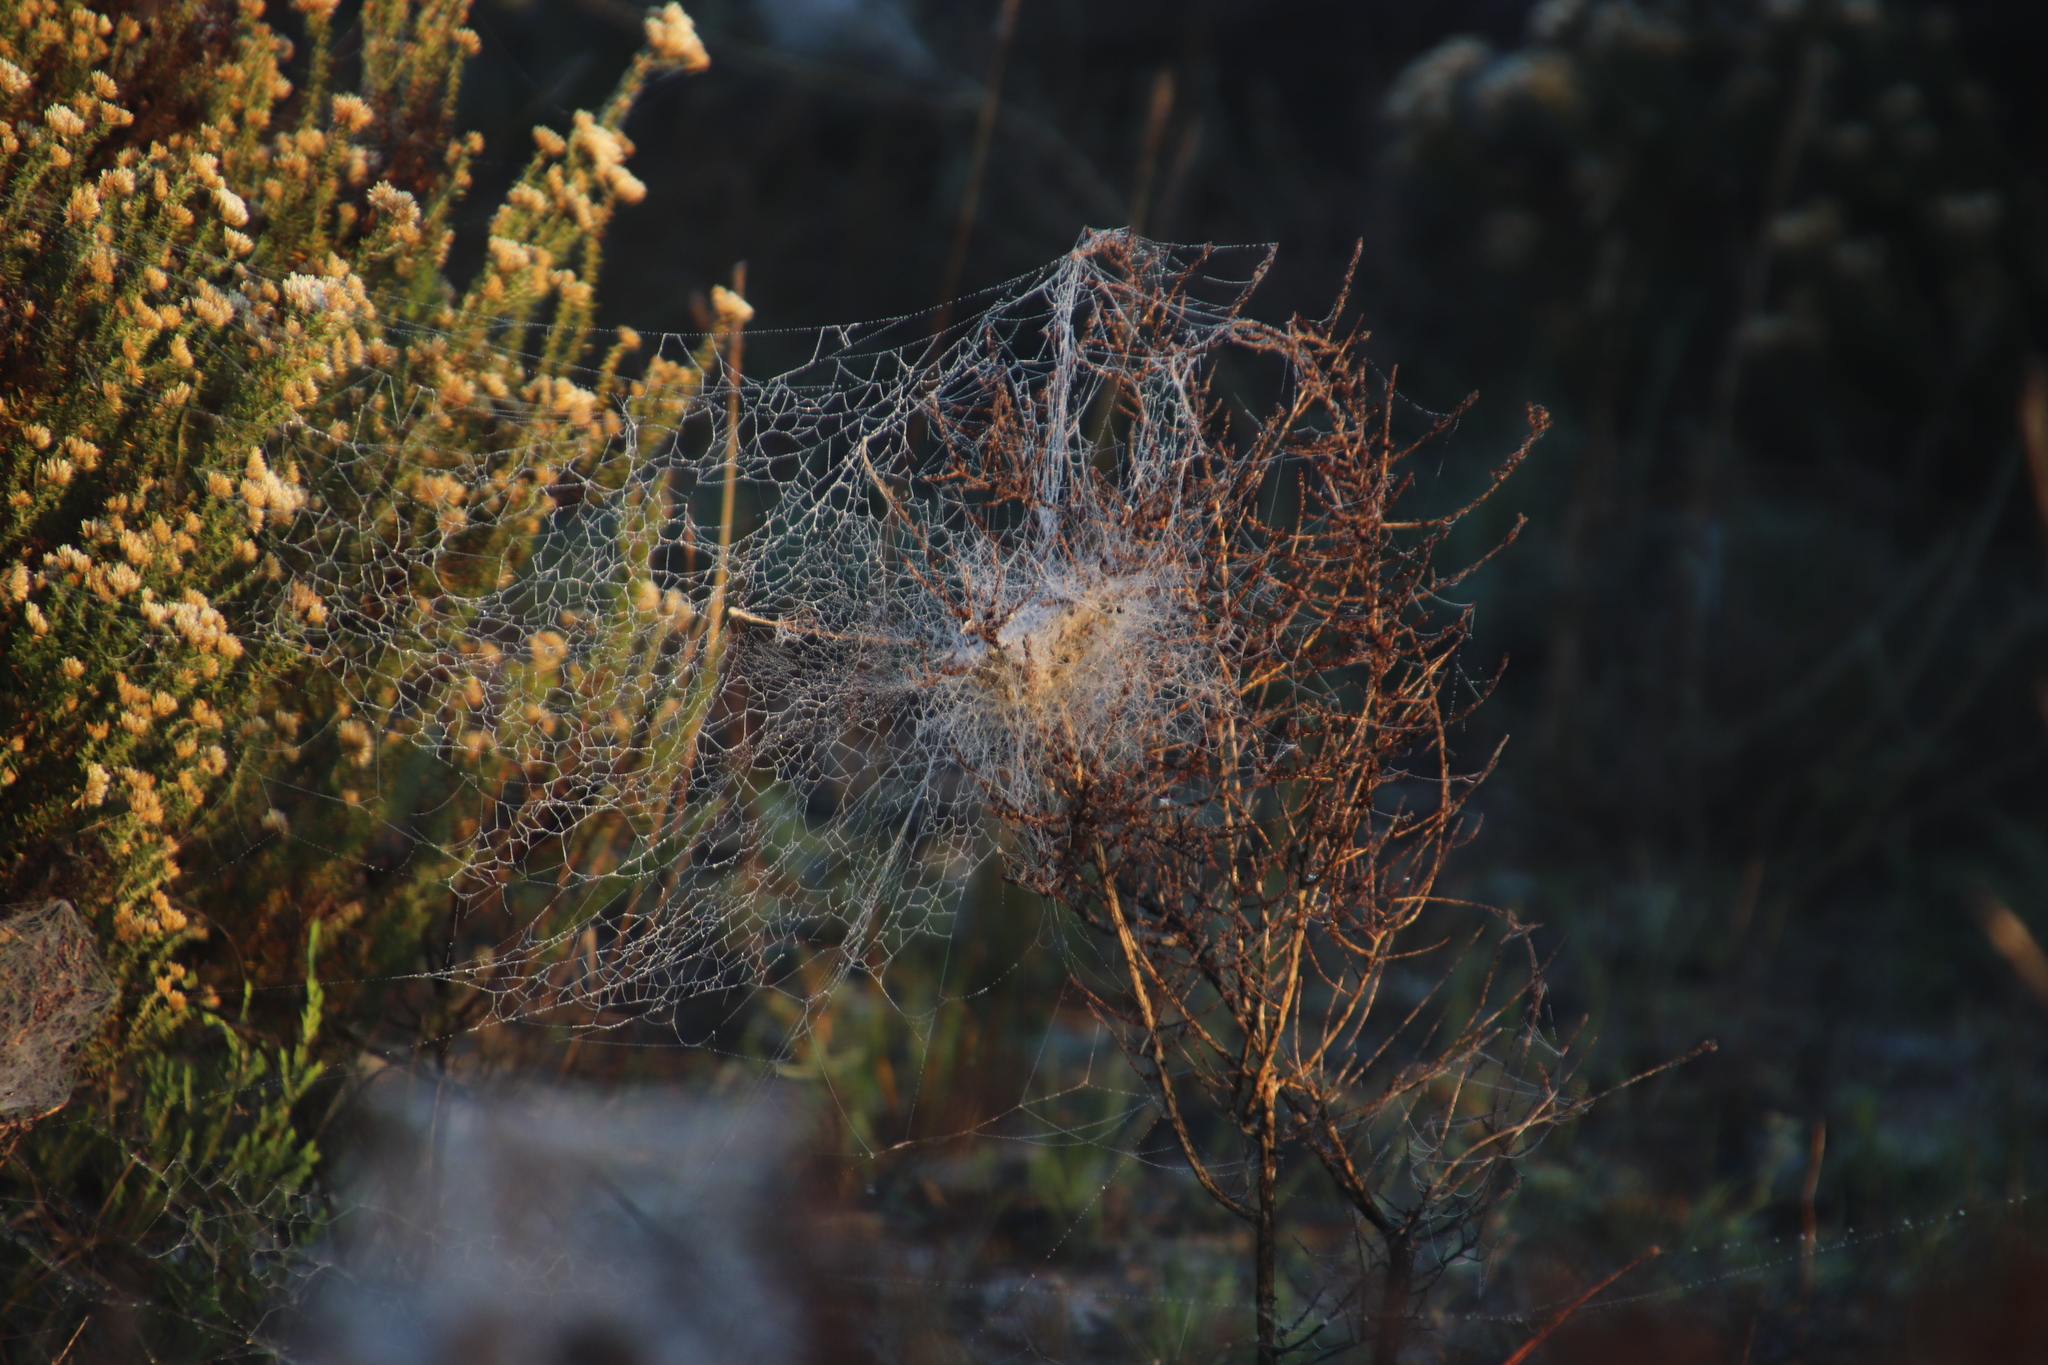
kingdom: Animalia
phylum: Arthropoda
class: Arachnida
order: Araneae
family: Eresidae
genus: Stegodyphus
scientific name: Stegodyphus dumicola
